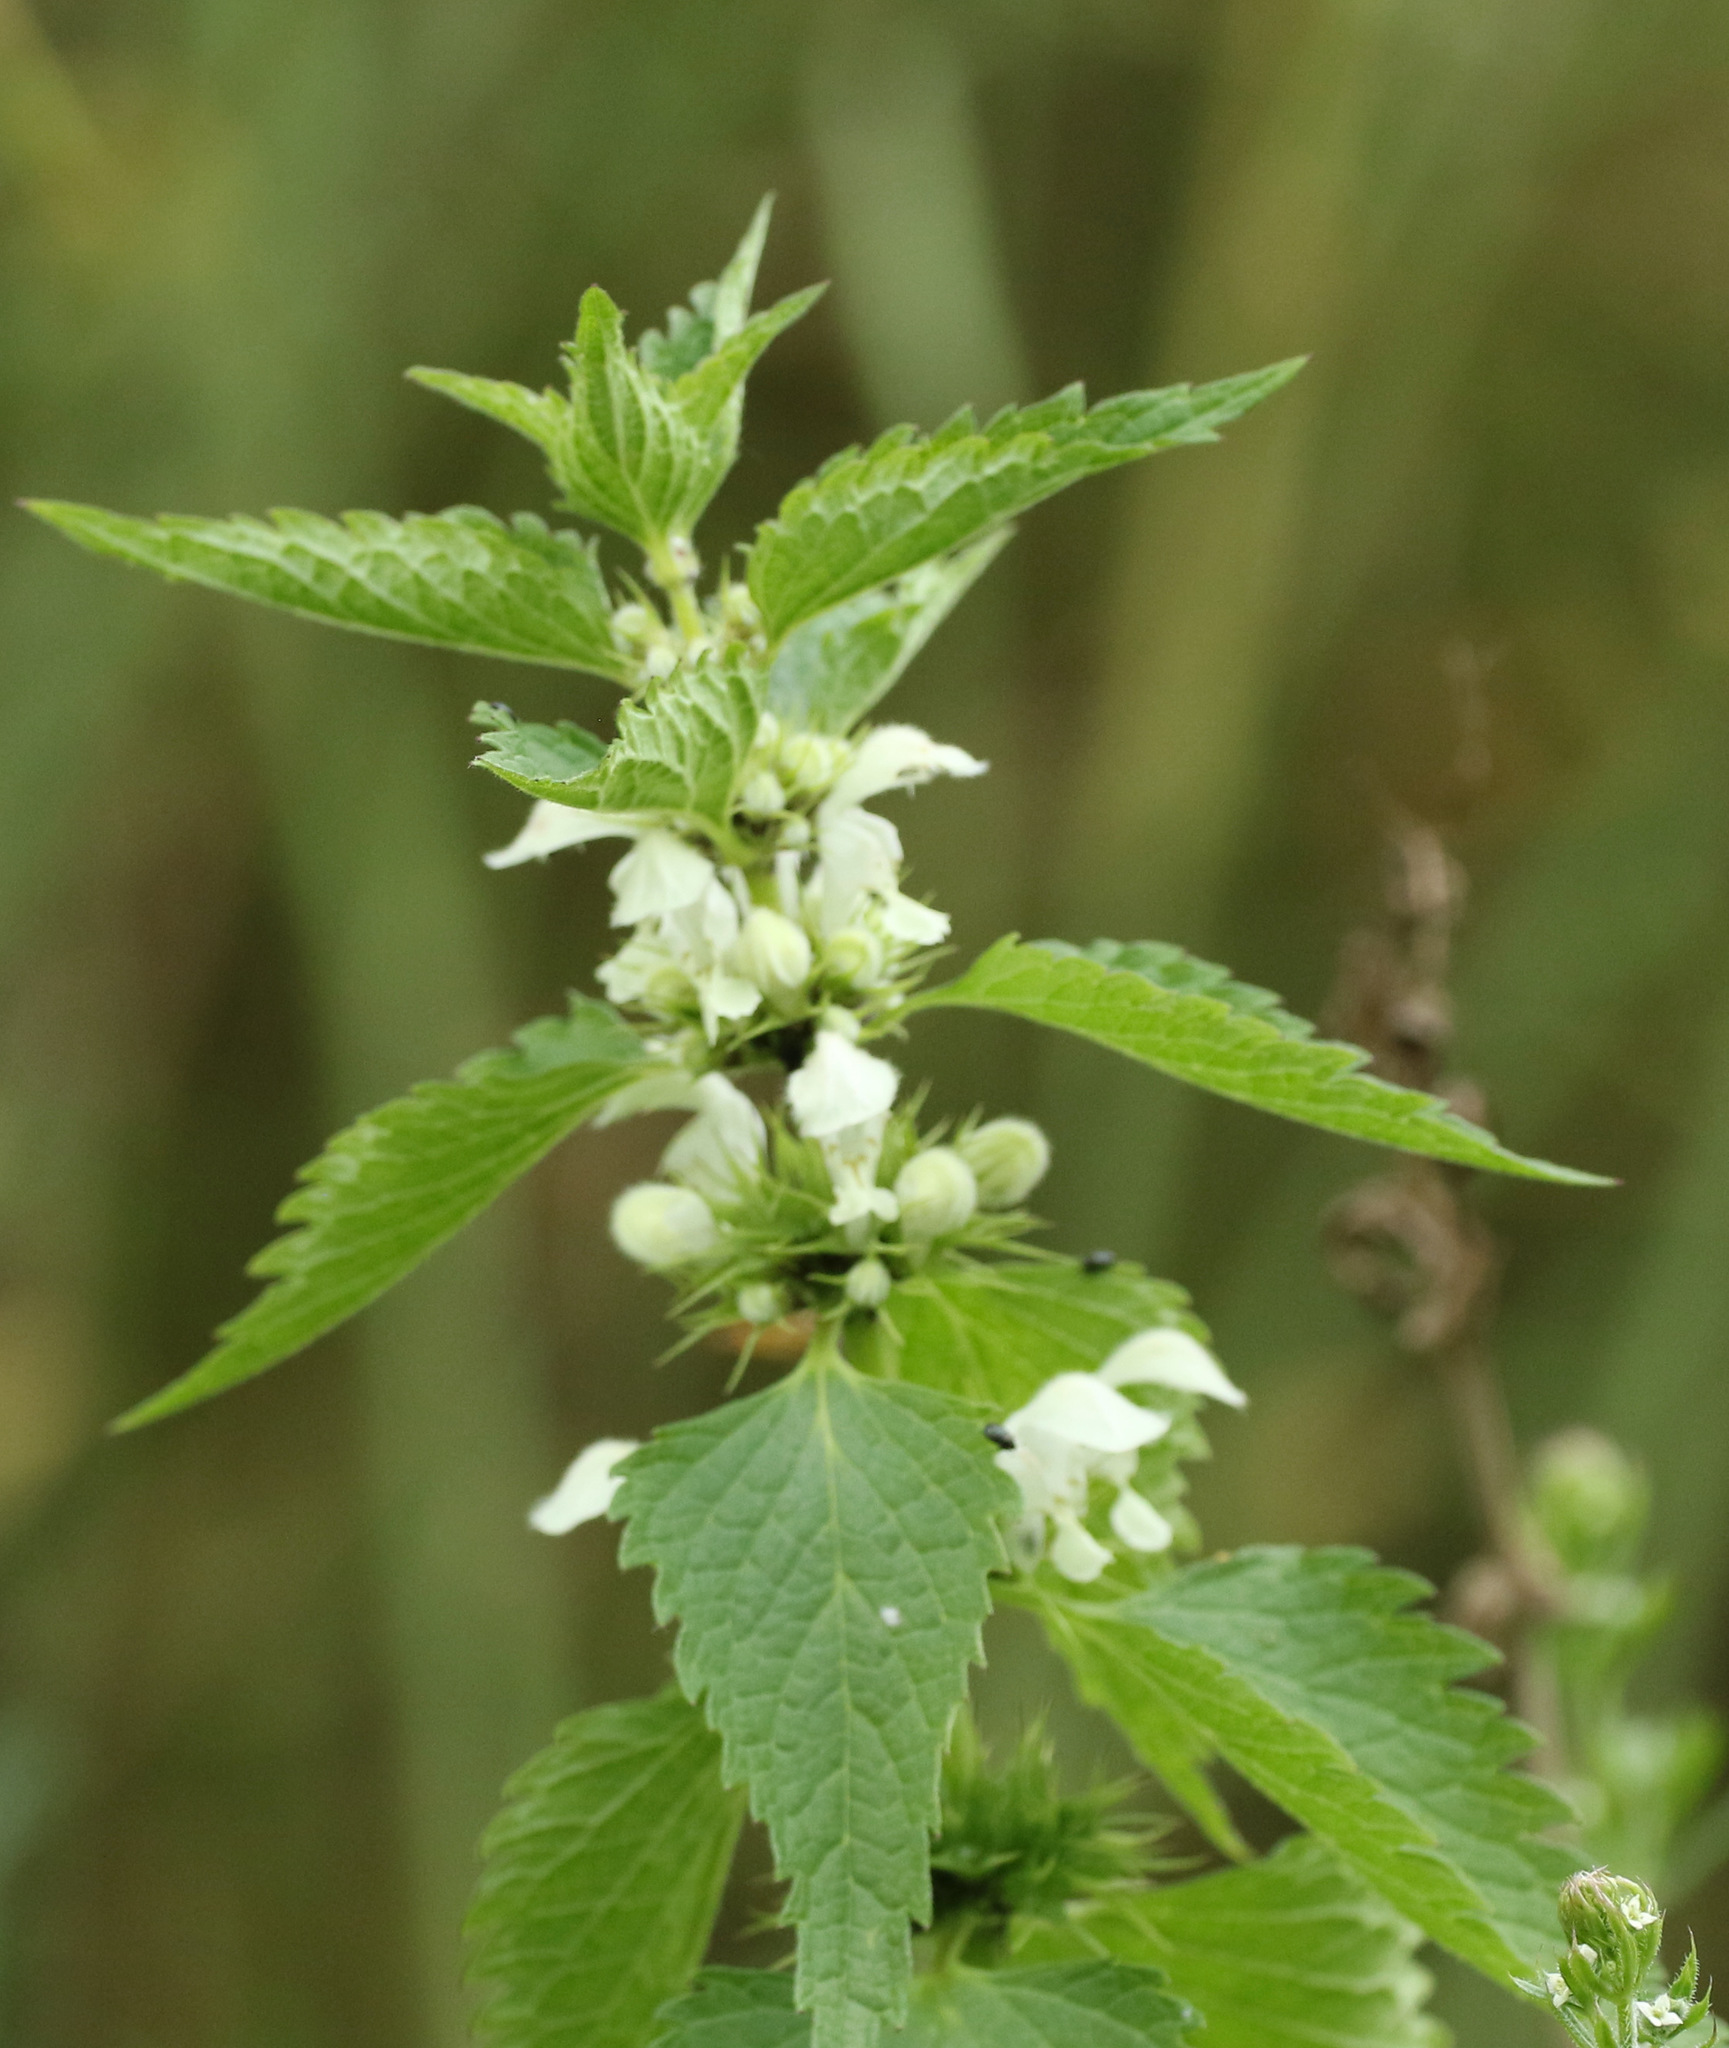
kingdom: Plantae
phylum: Tracheophyta
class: Magnoliopsida
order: Lamiales
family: Lamiaceae
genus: Lamium
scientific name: Lamium album
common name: White dead-nettle
